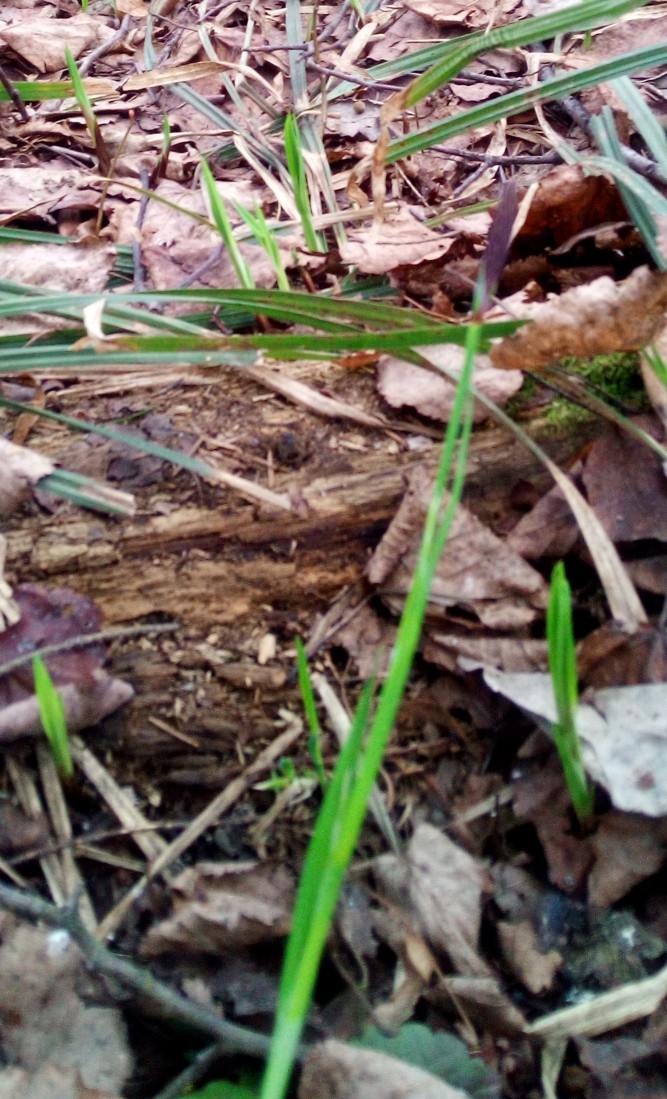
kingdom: Plantae
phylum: Tracheophyta
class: Liliopsida
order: Poales
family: Cyperaceae
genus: Carex
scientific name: Carex pilosa
